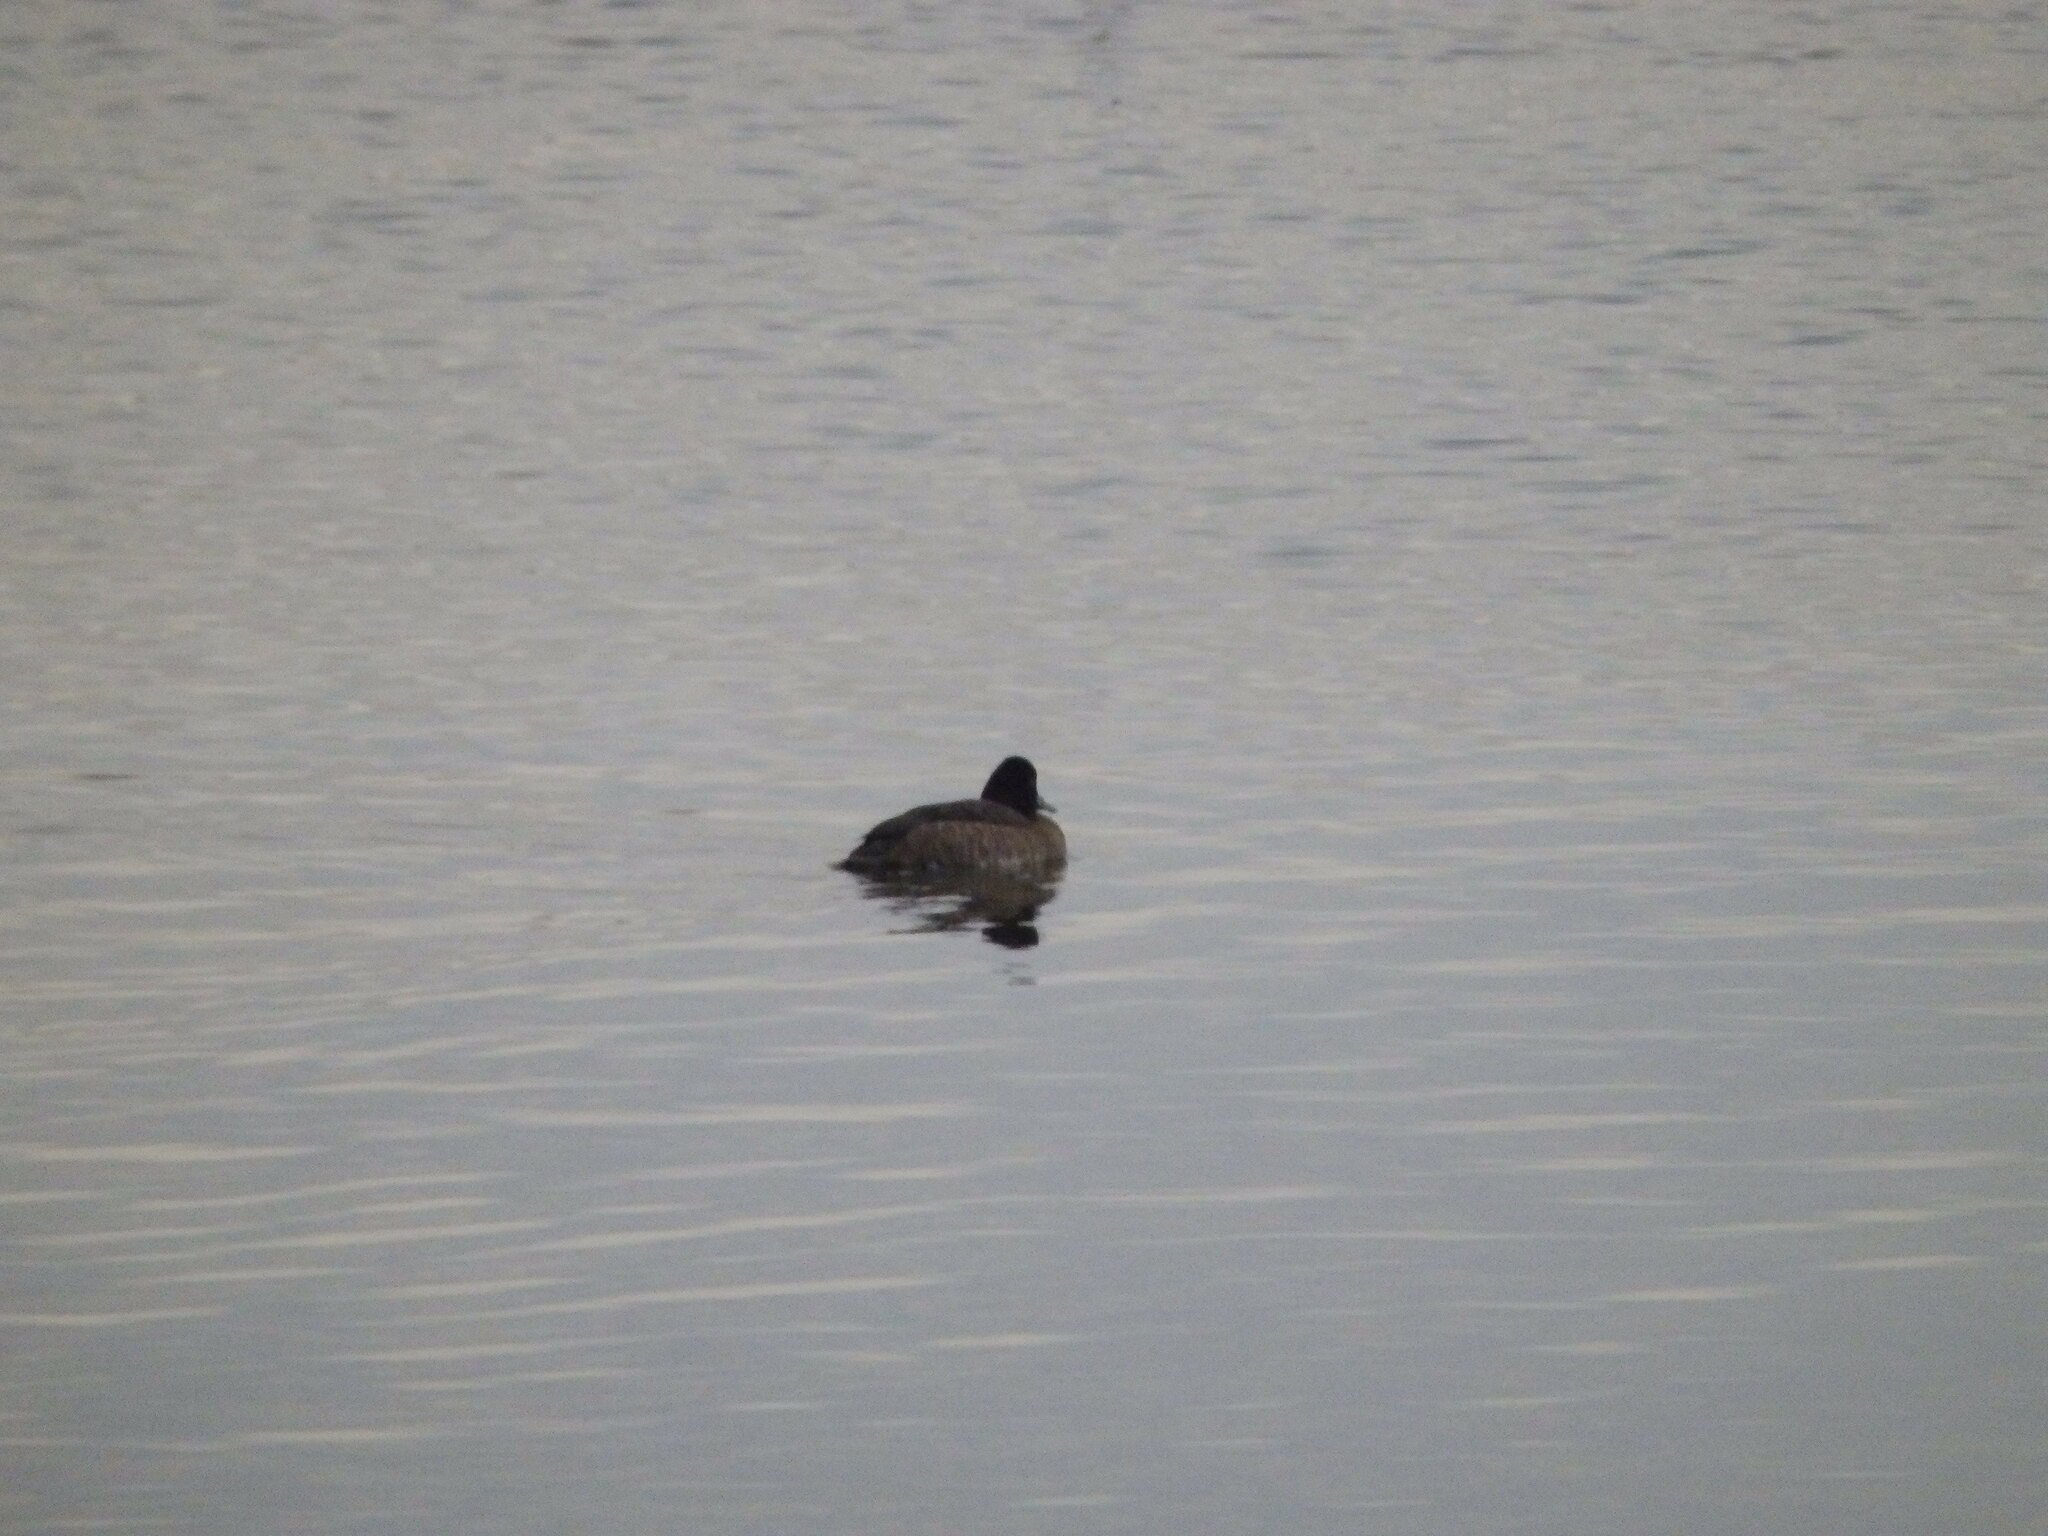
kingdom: Animalia
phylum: Chordata
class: Aves
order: Anseriformes
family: Anatidae
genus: Aythya
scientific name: Aythya affinis
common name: Lesser scaup
